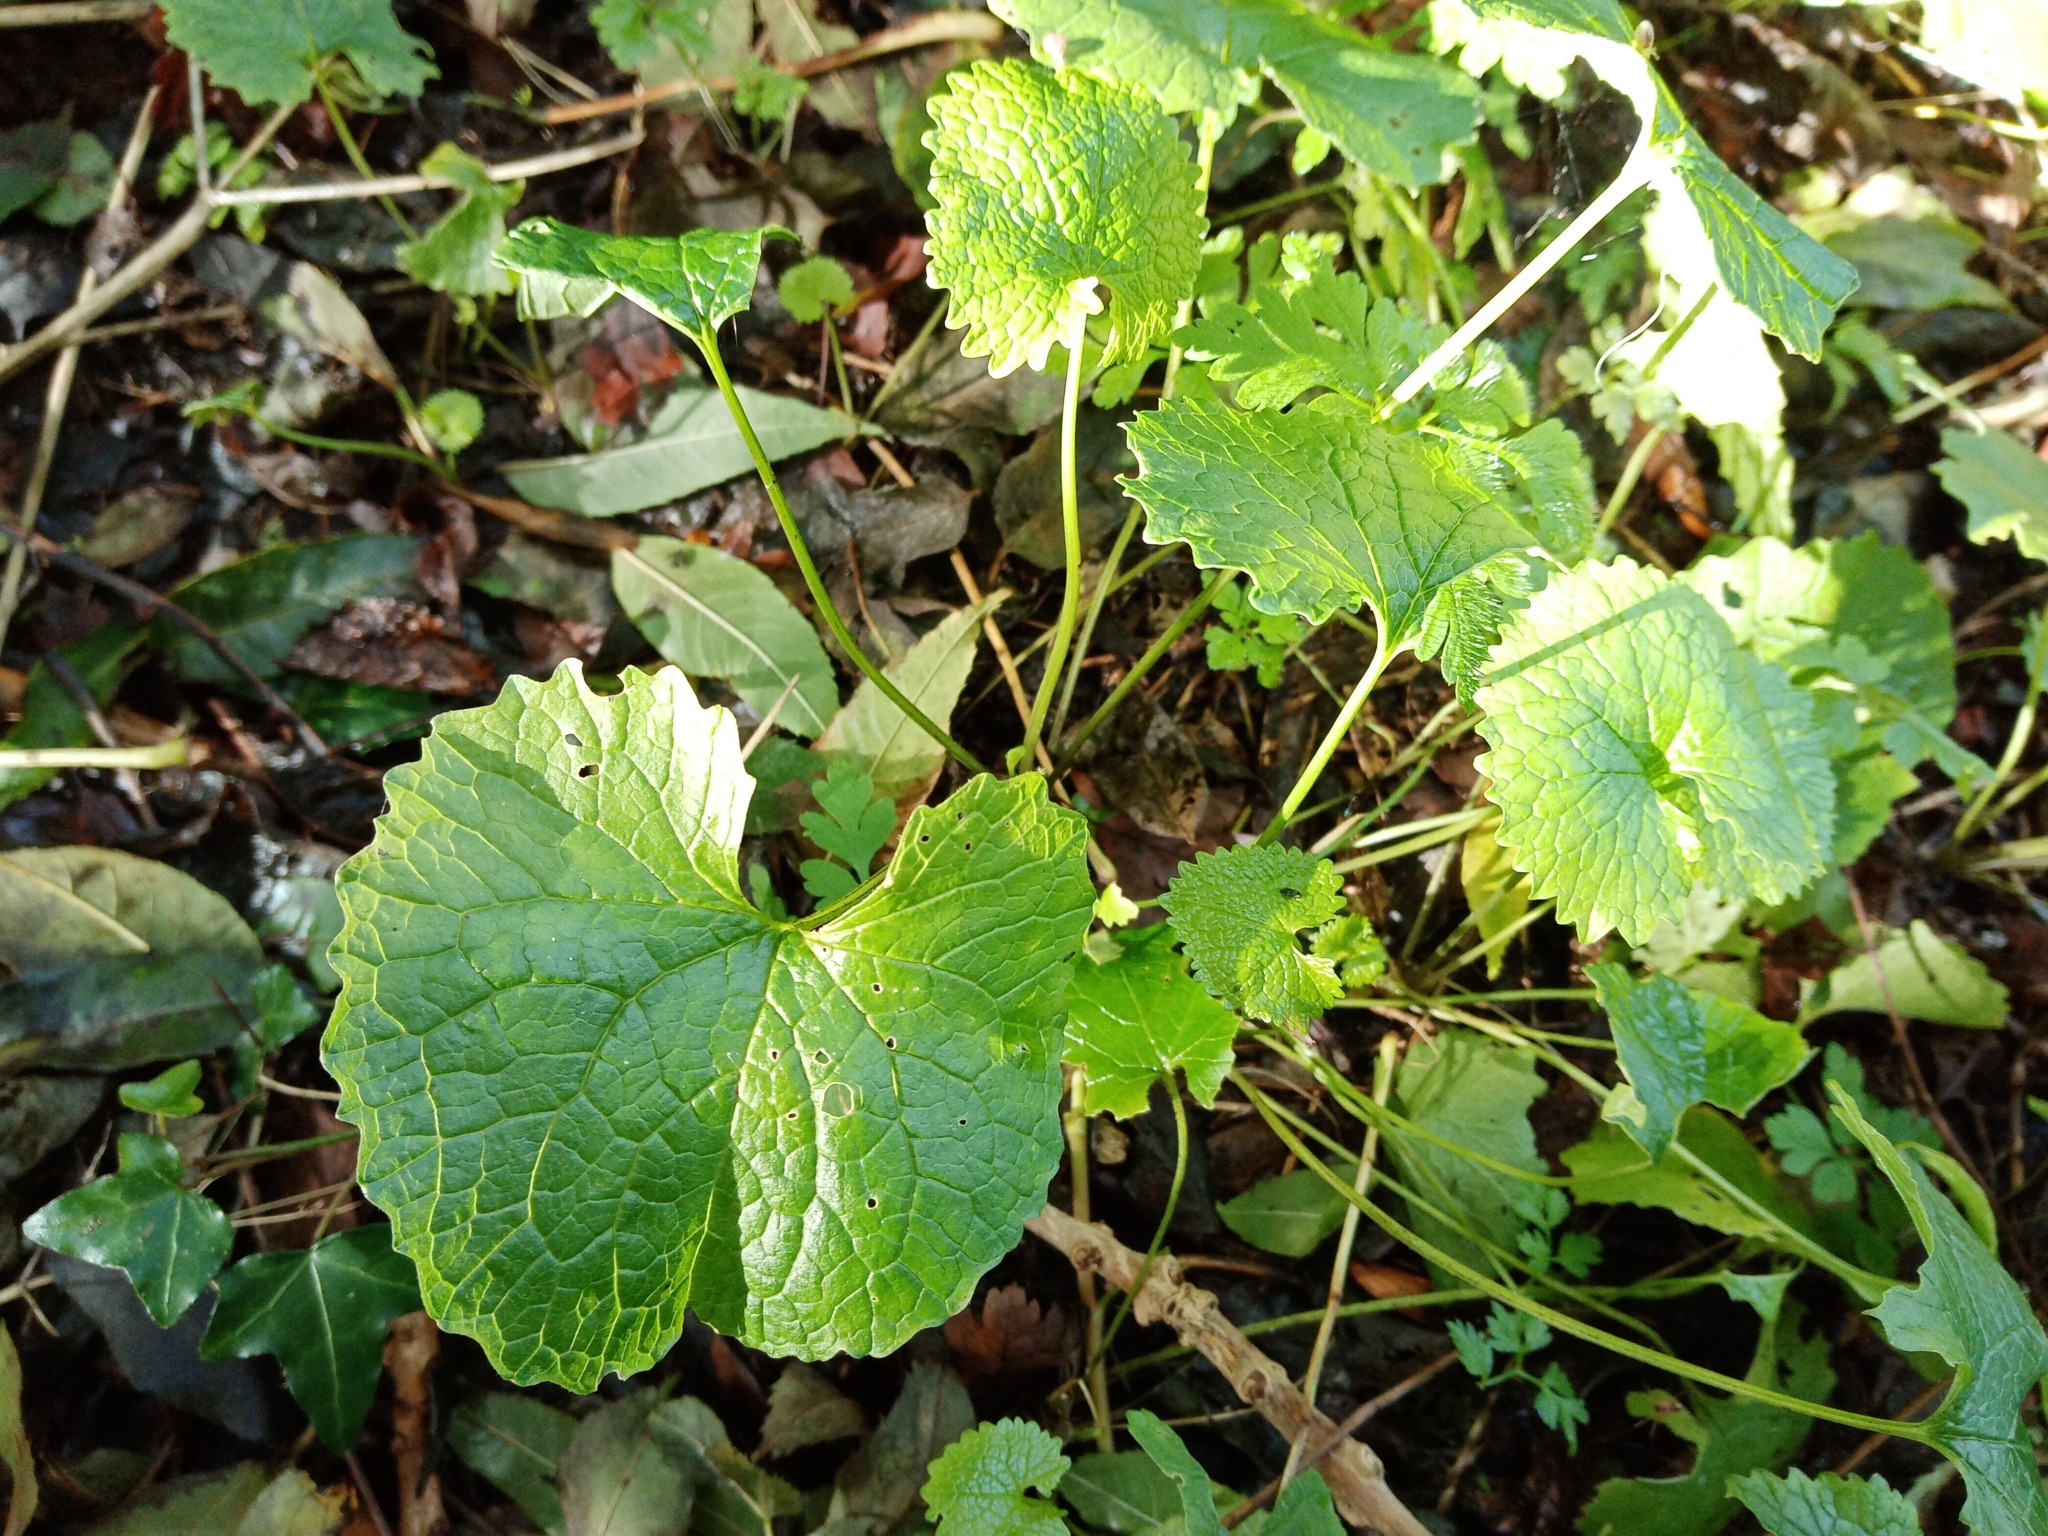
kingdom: Plantae
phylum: Tracheophyta
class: Magnoliopsida
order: Brassicales
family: Brassicaceae
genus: Alliaria
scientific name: Alliaria petiolata
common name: Garlic mustard
